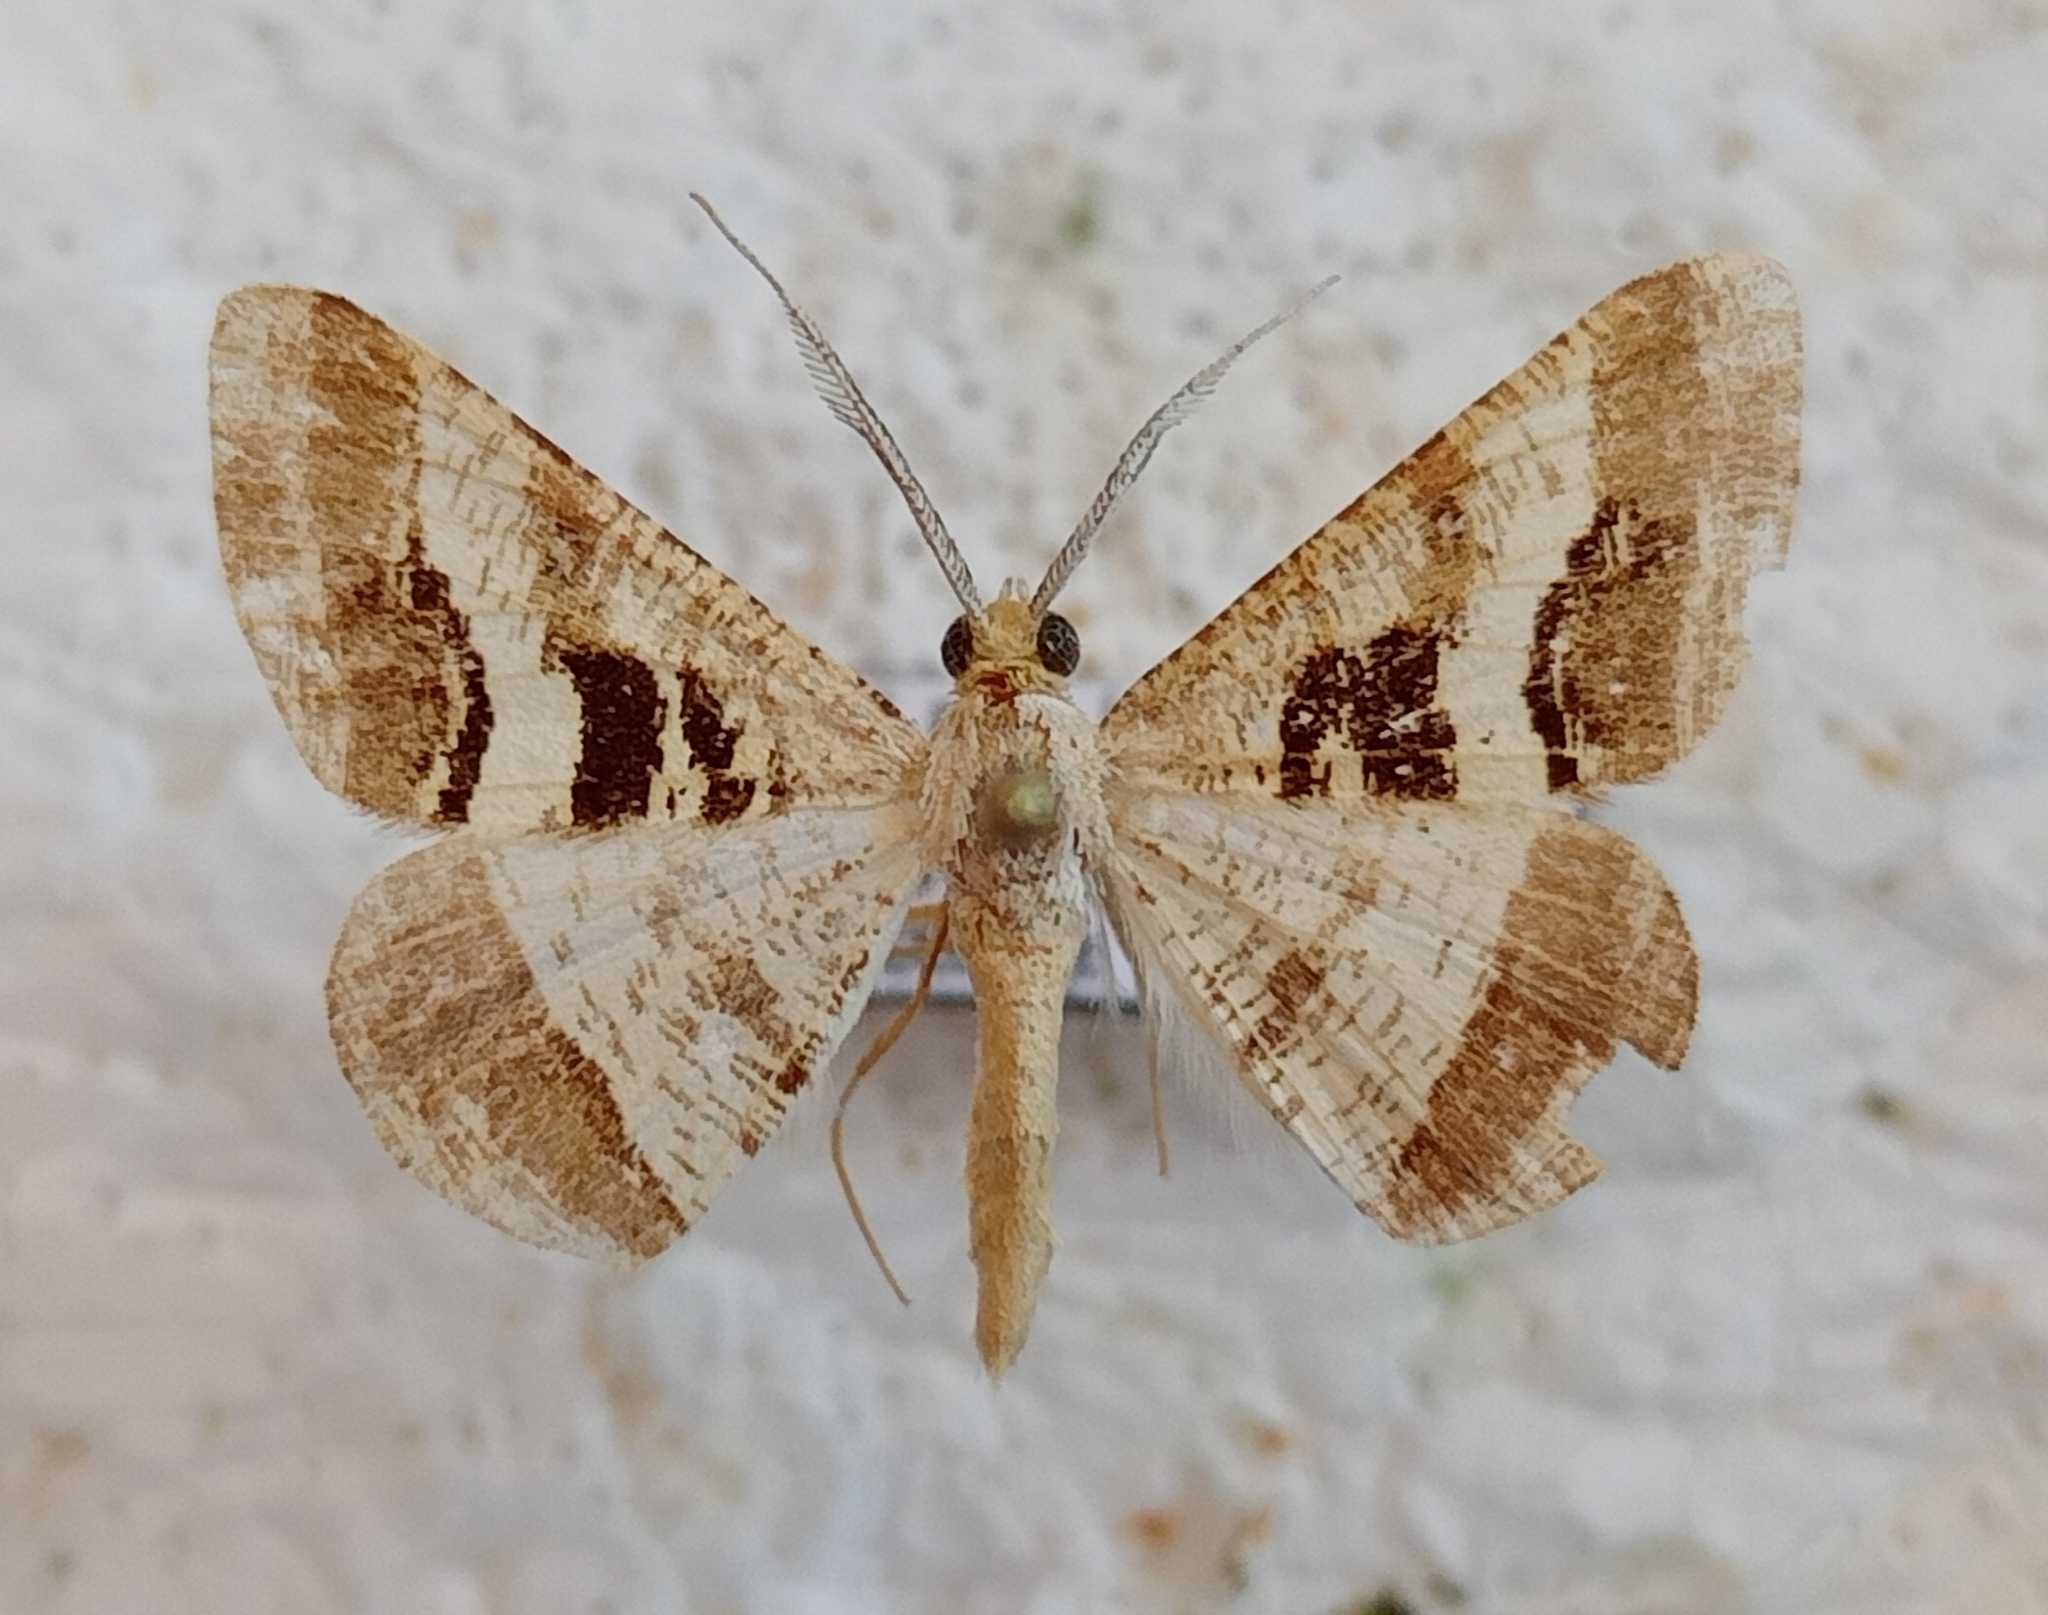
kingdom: Animalia
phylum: Arthropoda
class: Insecta
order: Lepidoptera
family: Geometridae
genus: Isturgia
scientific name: Isturgia disputaria
